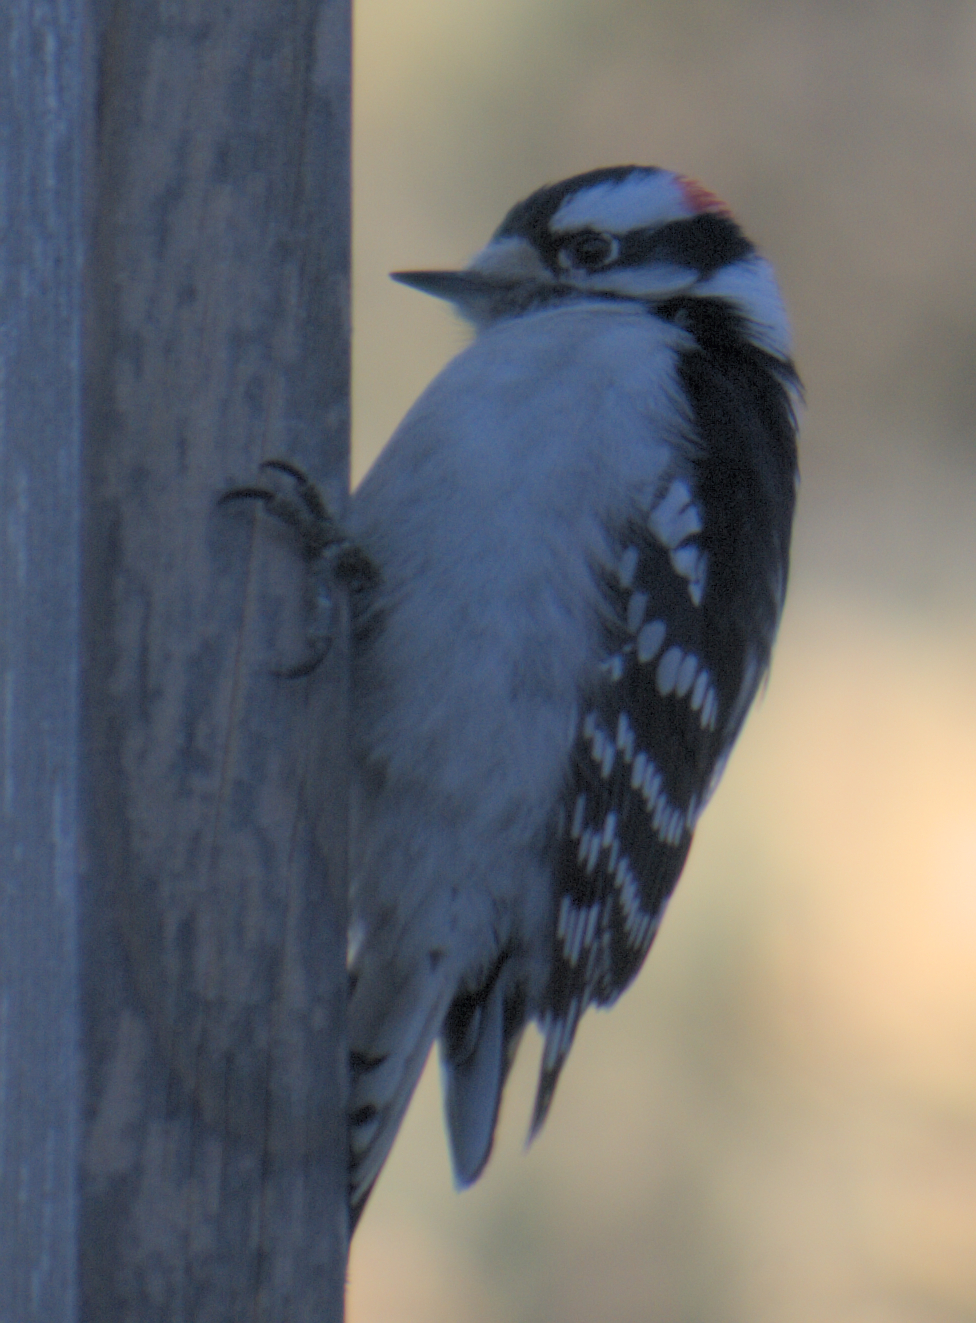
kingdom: Animalia
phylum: Chordata
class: Aves
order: Piciformes
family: Picidae
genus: Dryobates
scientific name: Dryobates pubescens
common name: Downy woodpecker
